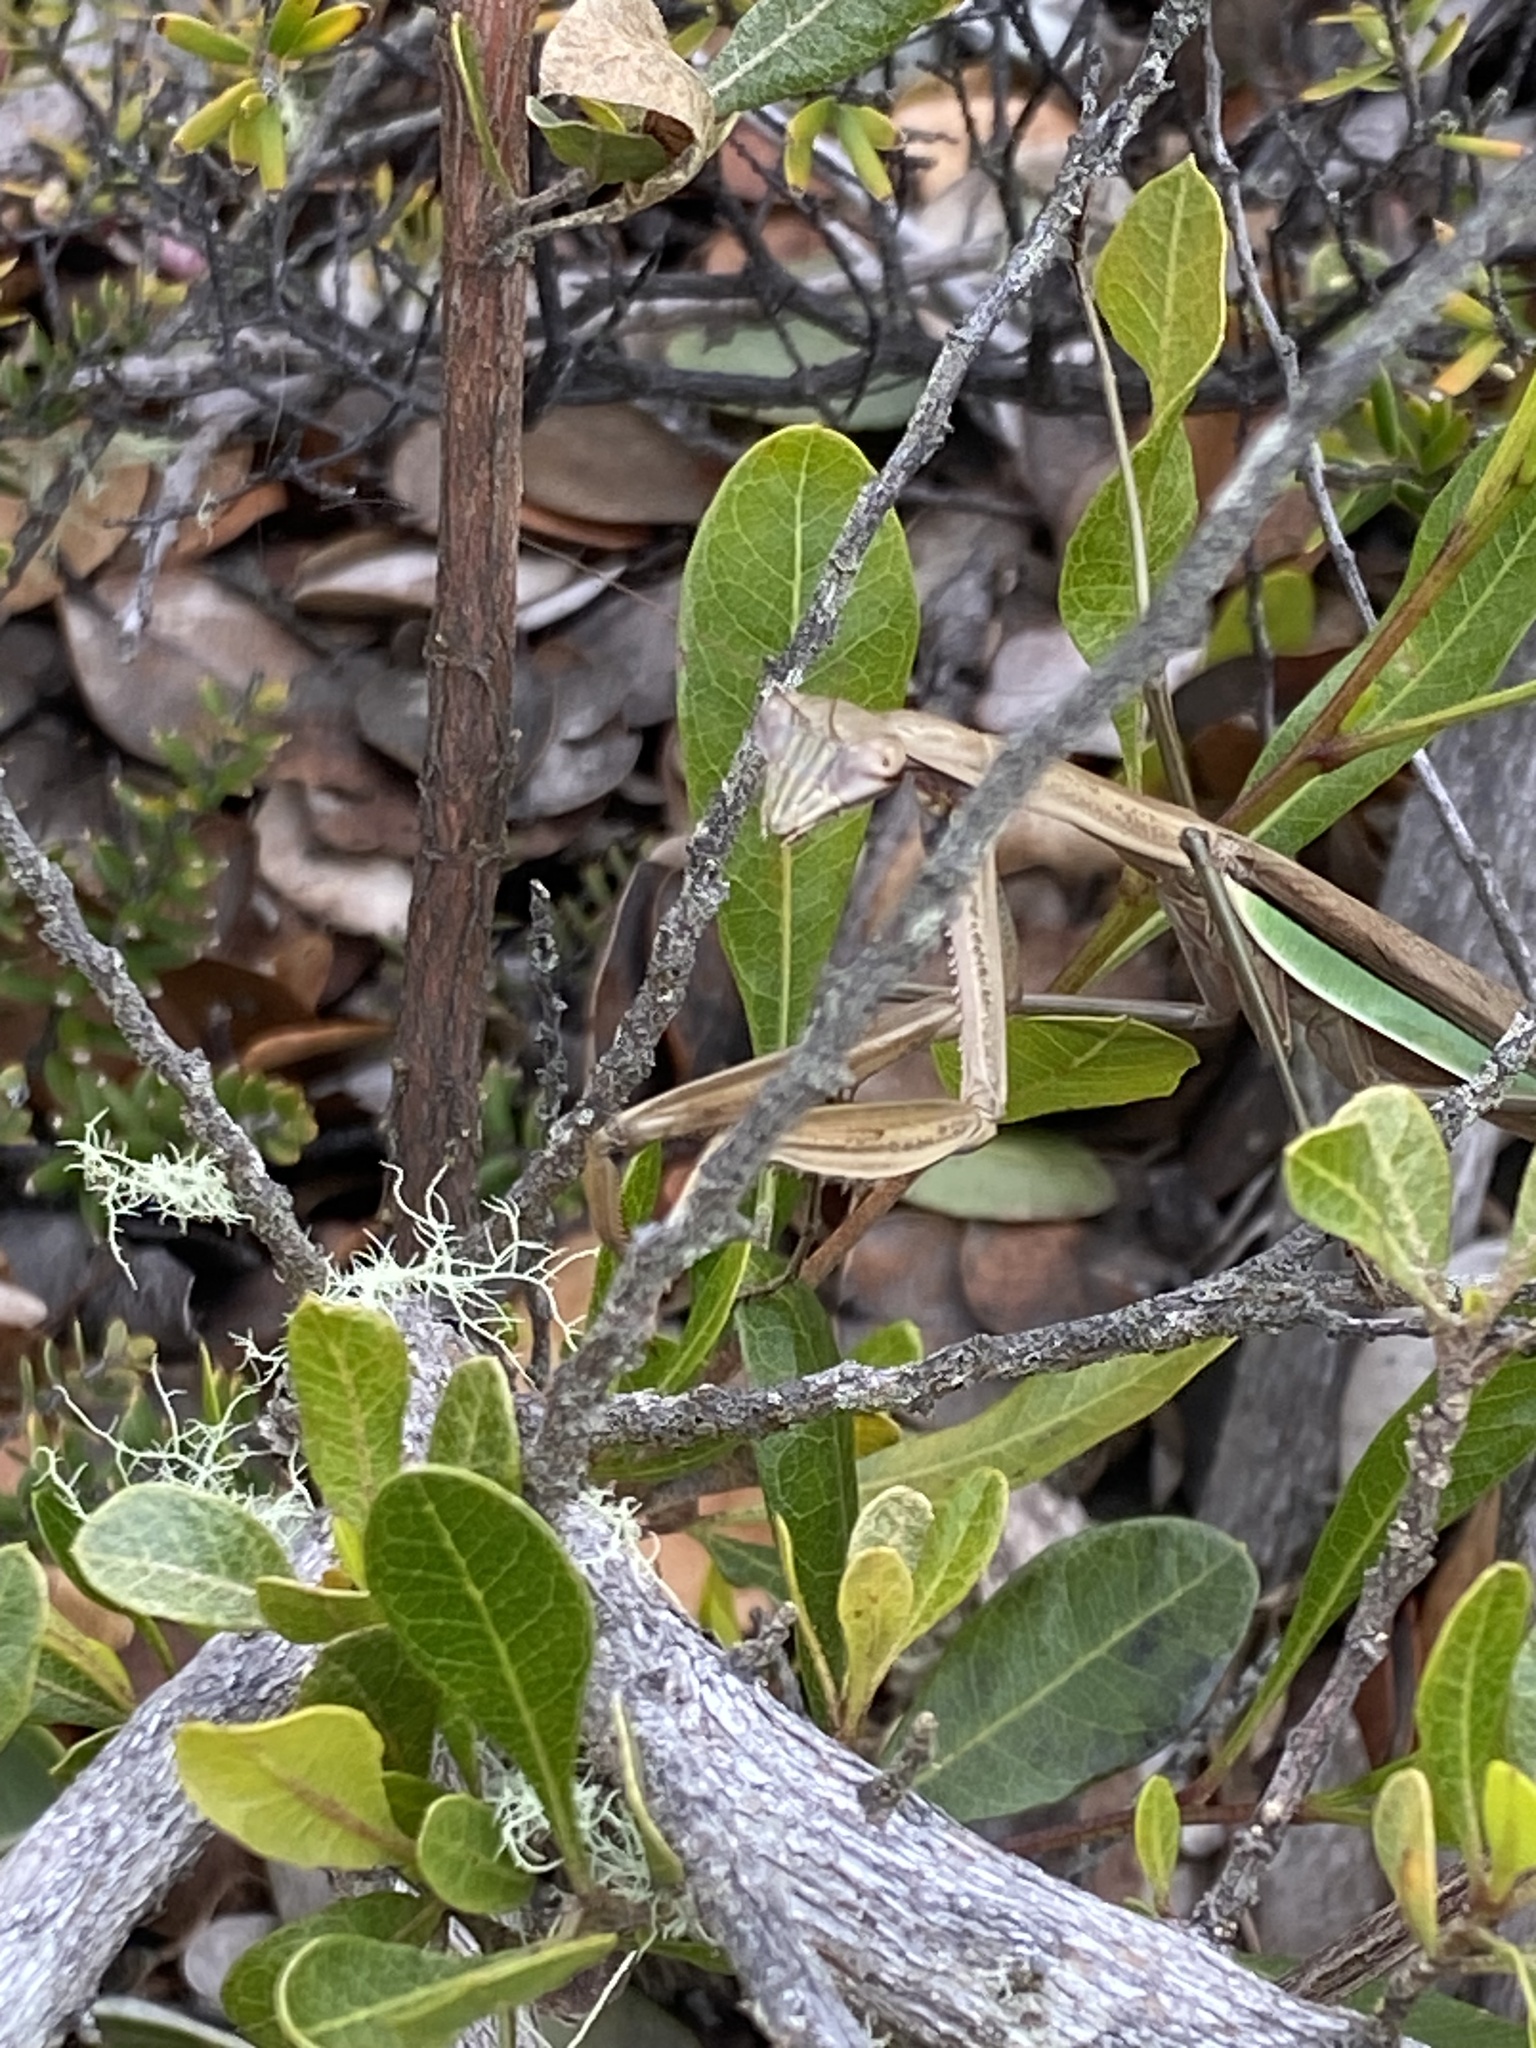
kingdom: Animalia
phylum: Arthropoda
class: Insecta
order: Mantodea
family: Mantidae
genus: Tenodera
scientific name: Tenodera sinensis
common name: Chinese mantis
